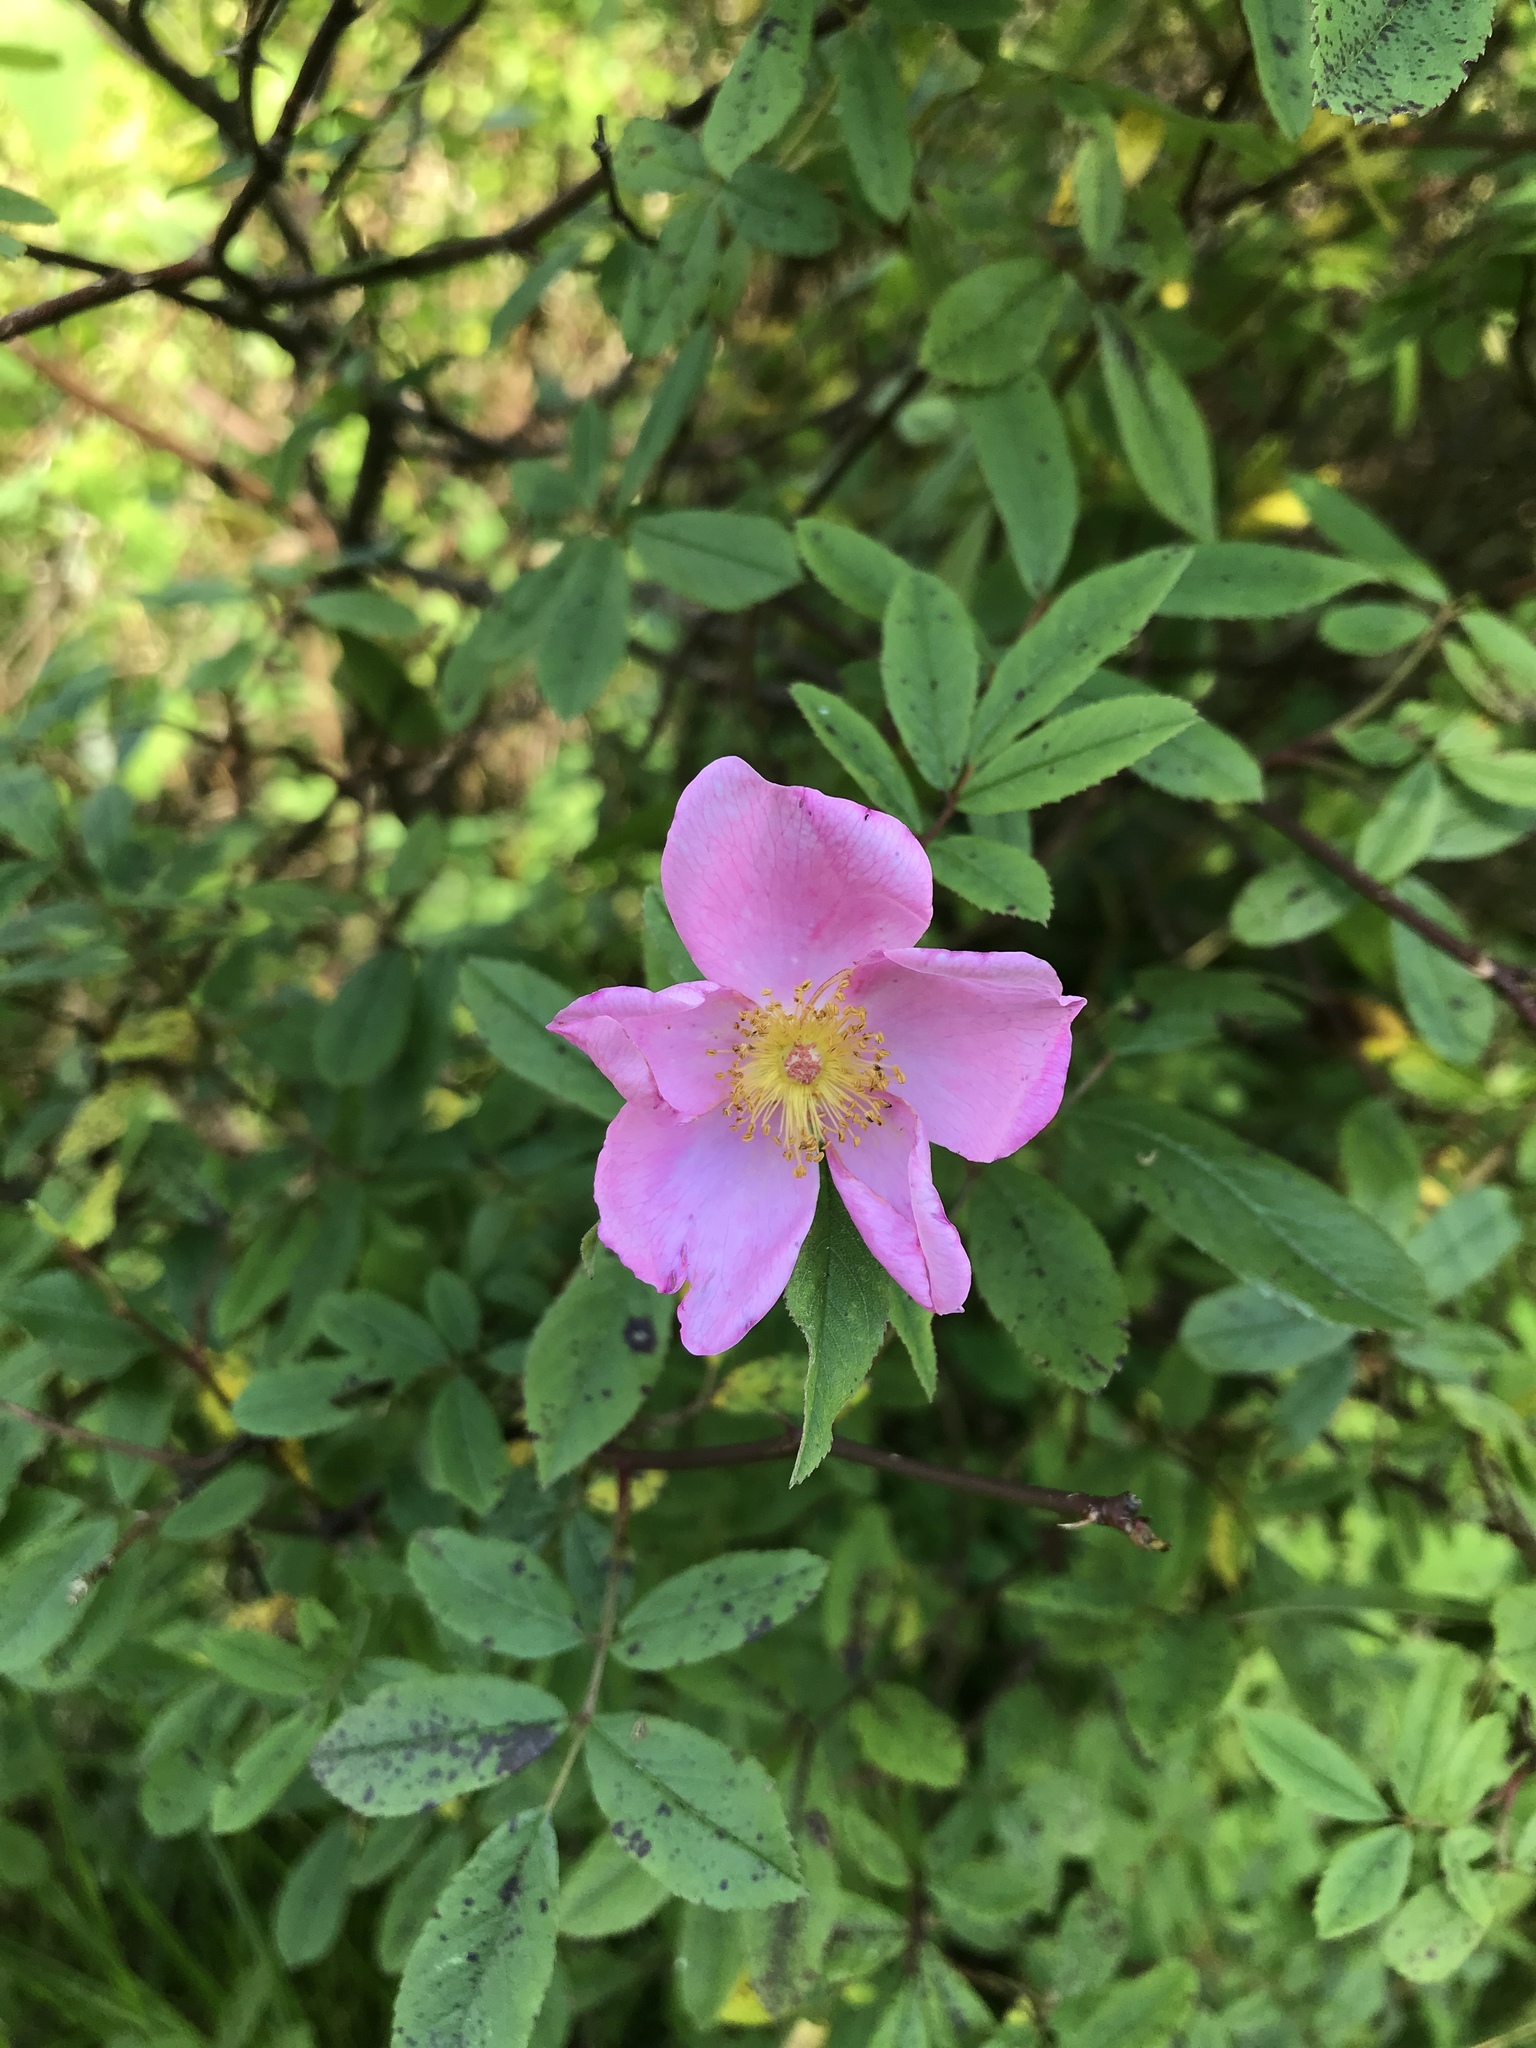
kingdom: Plantae
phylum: Tracheophyta
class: Magnoliopsida
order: Rosales
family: Rosaceae
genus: Rosa
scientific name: Rosa palustris
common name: Swamp rose
